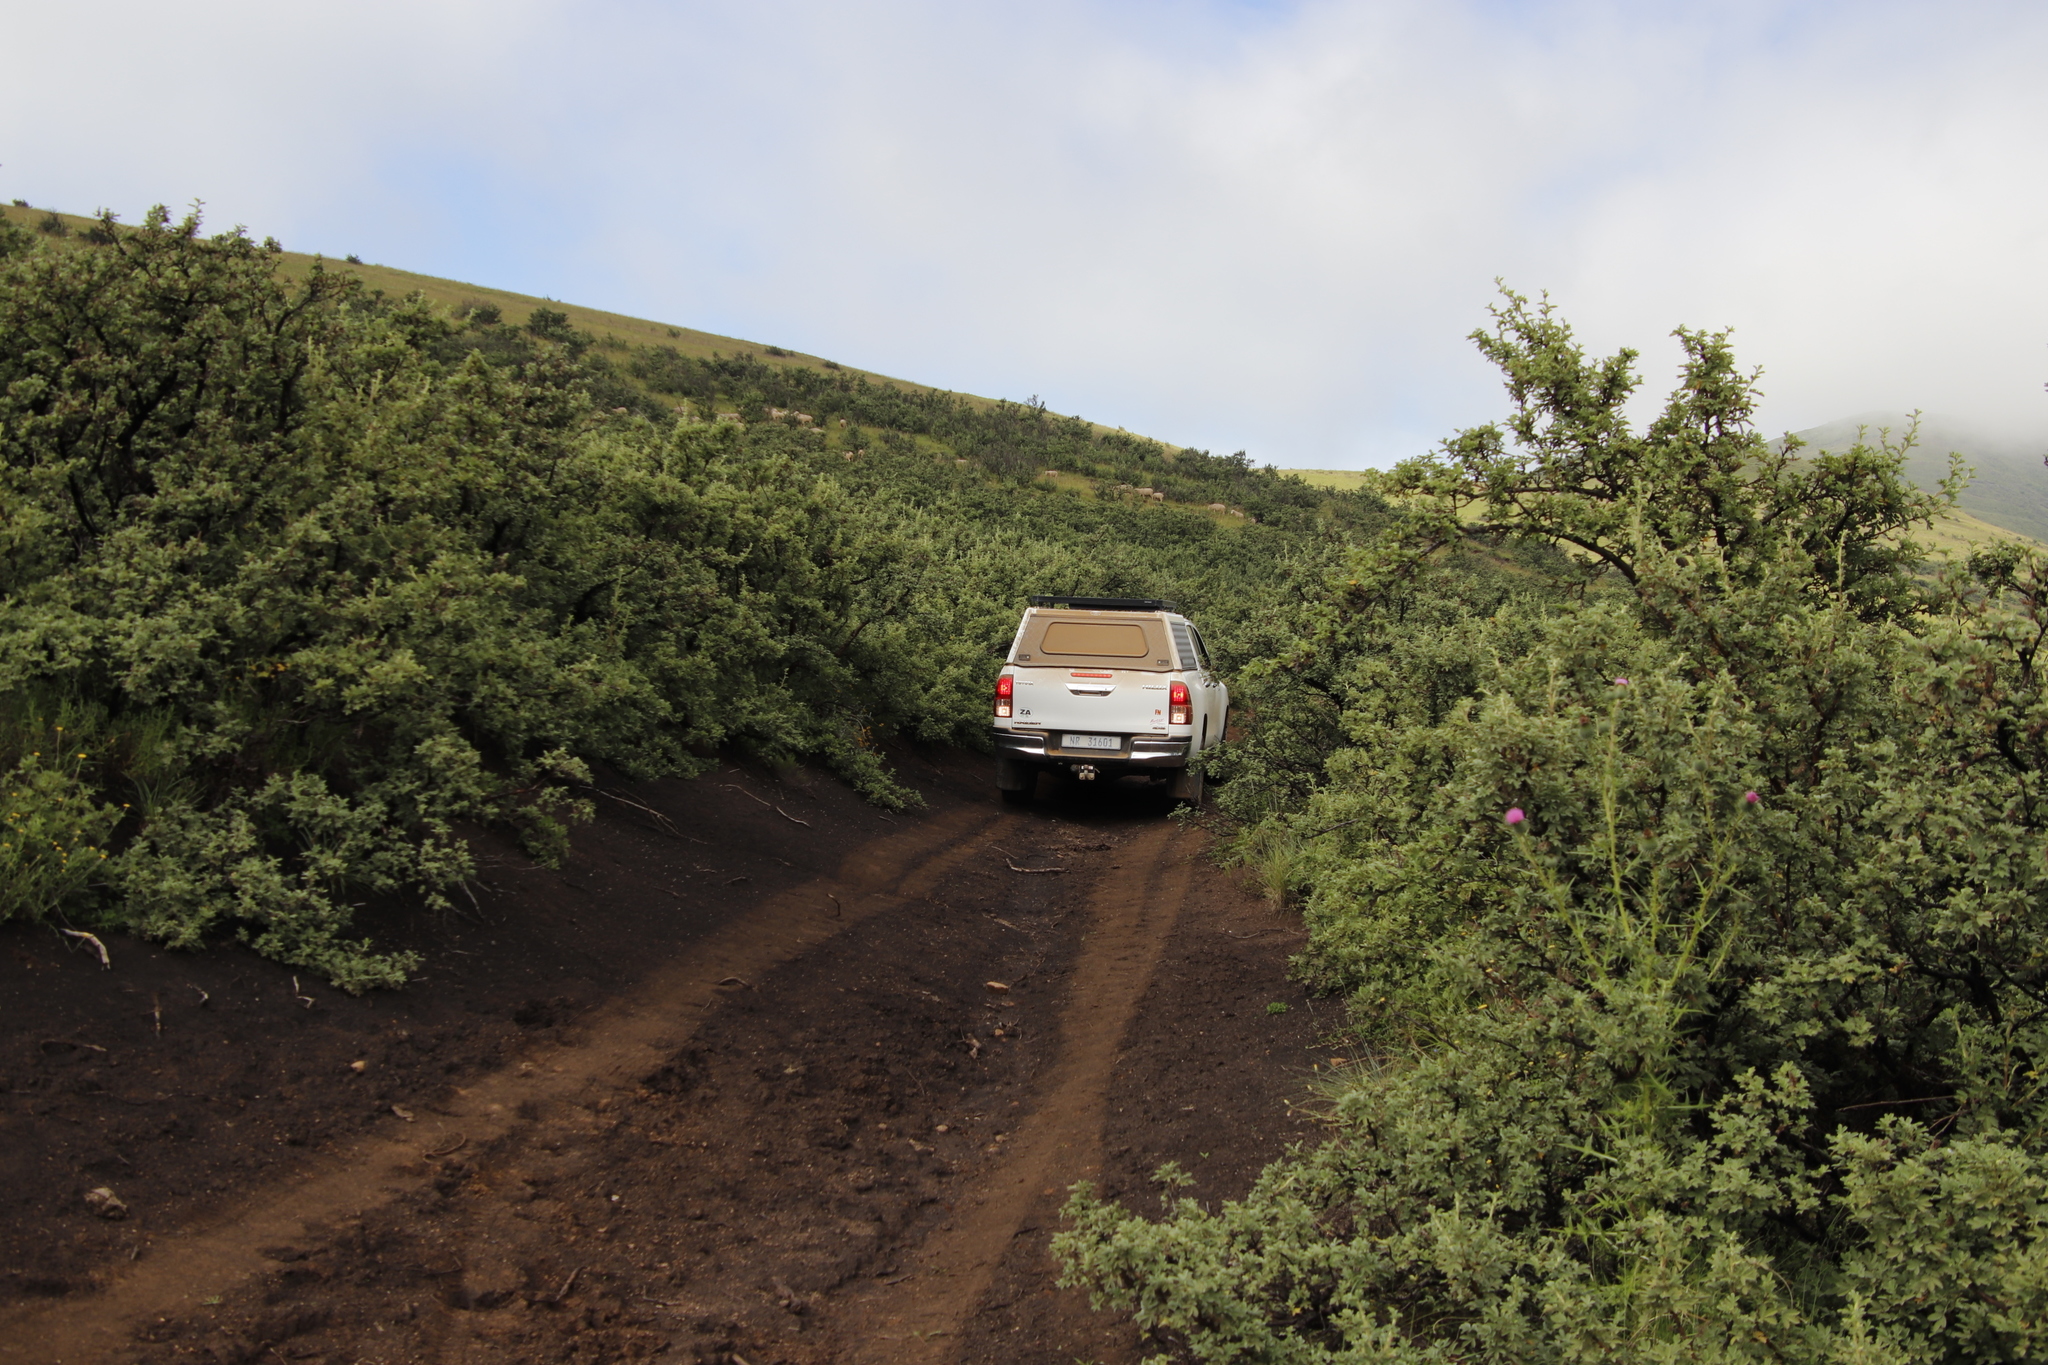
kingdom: Plantae
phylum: Tracheophyta
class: Magnoliopsida
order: Rosales
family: Rosaceae
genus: Leucosidea
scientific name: Leucosidea sericea
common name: Oldwood
